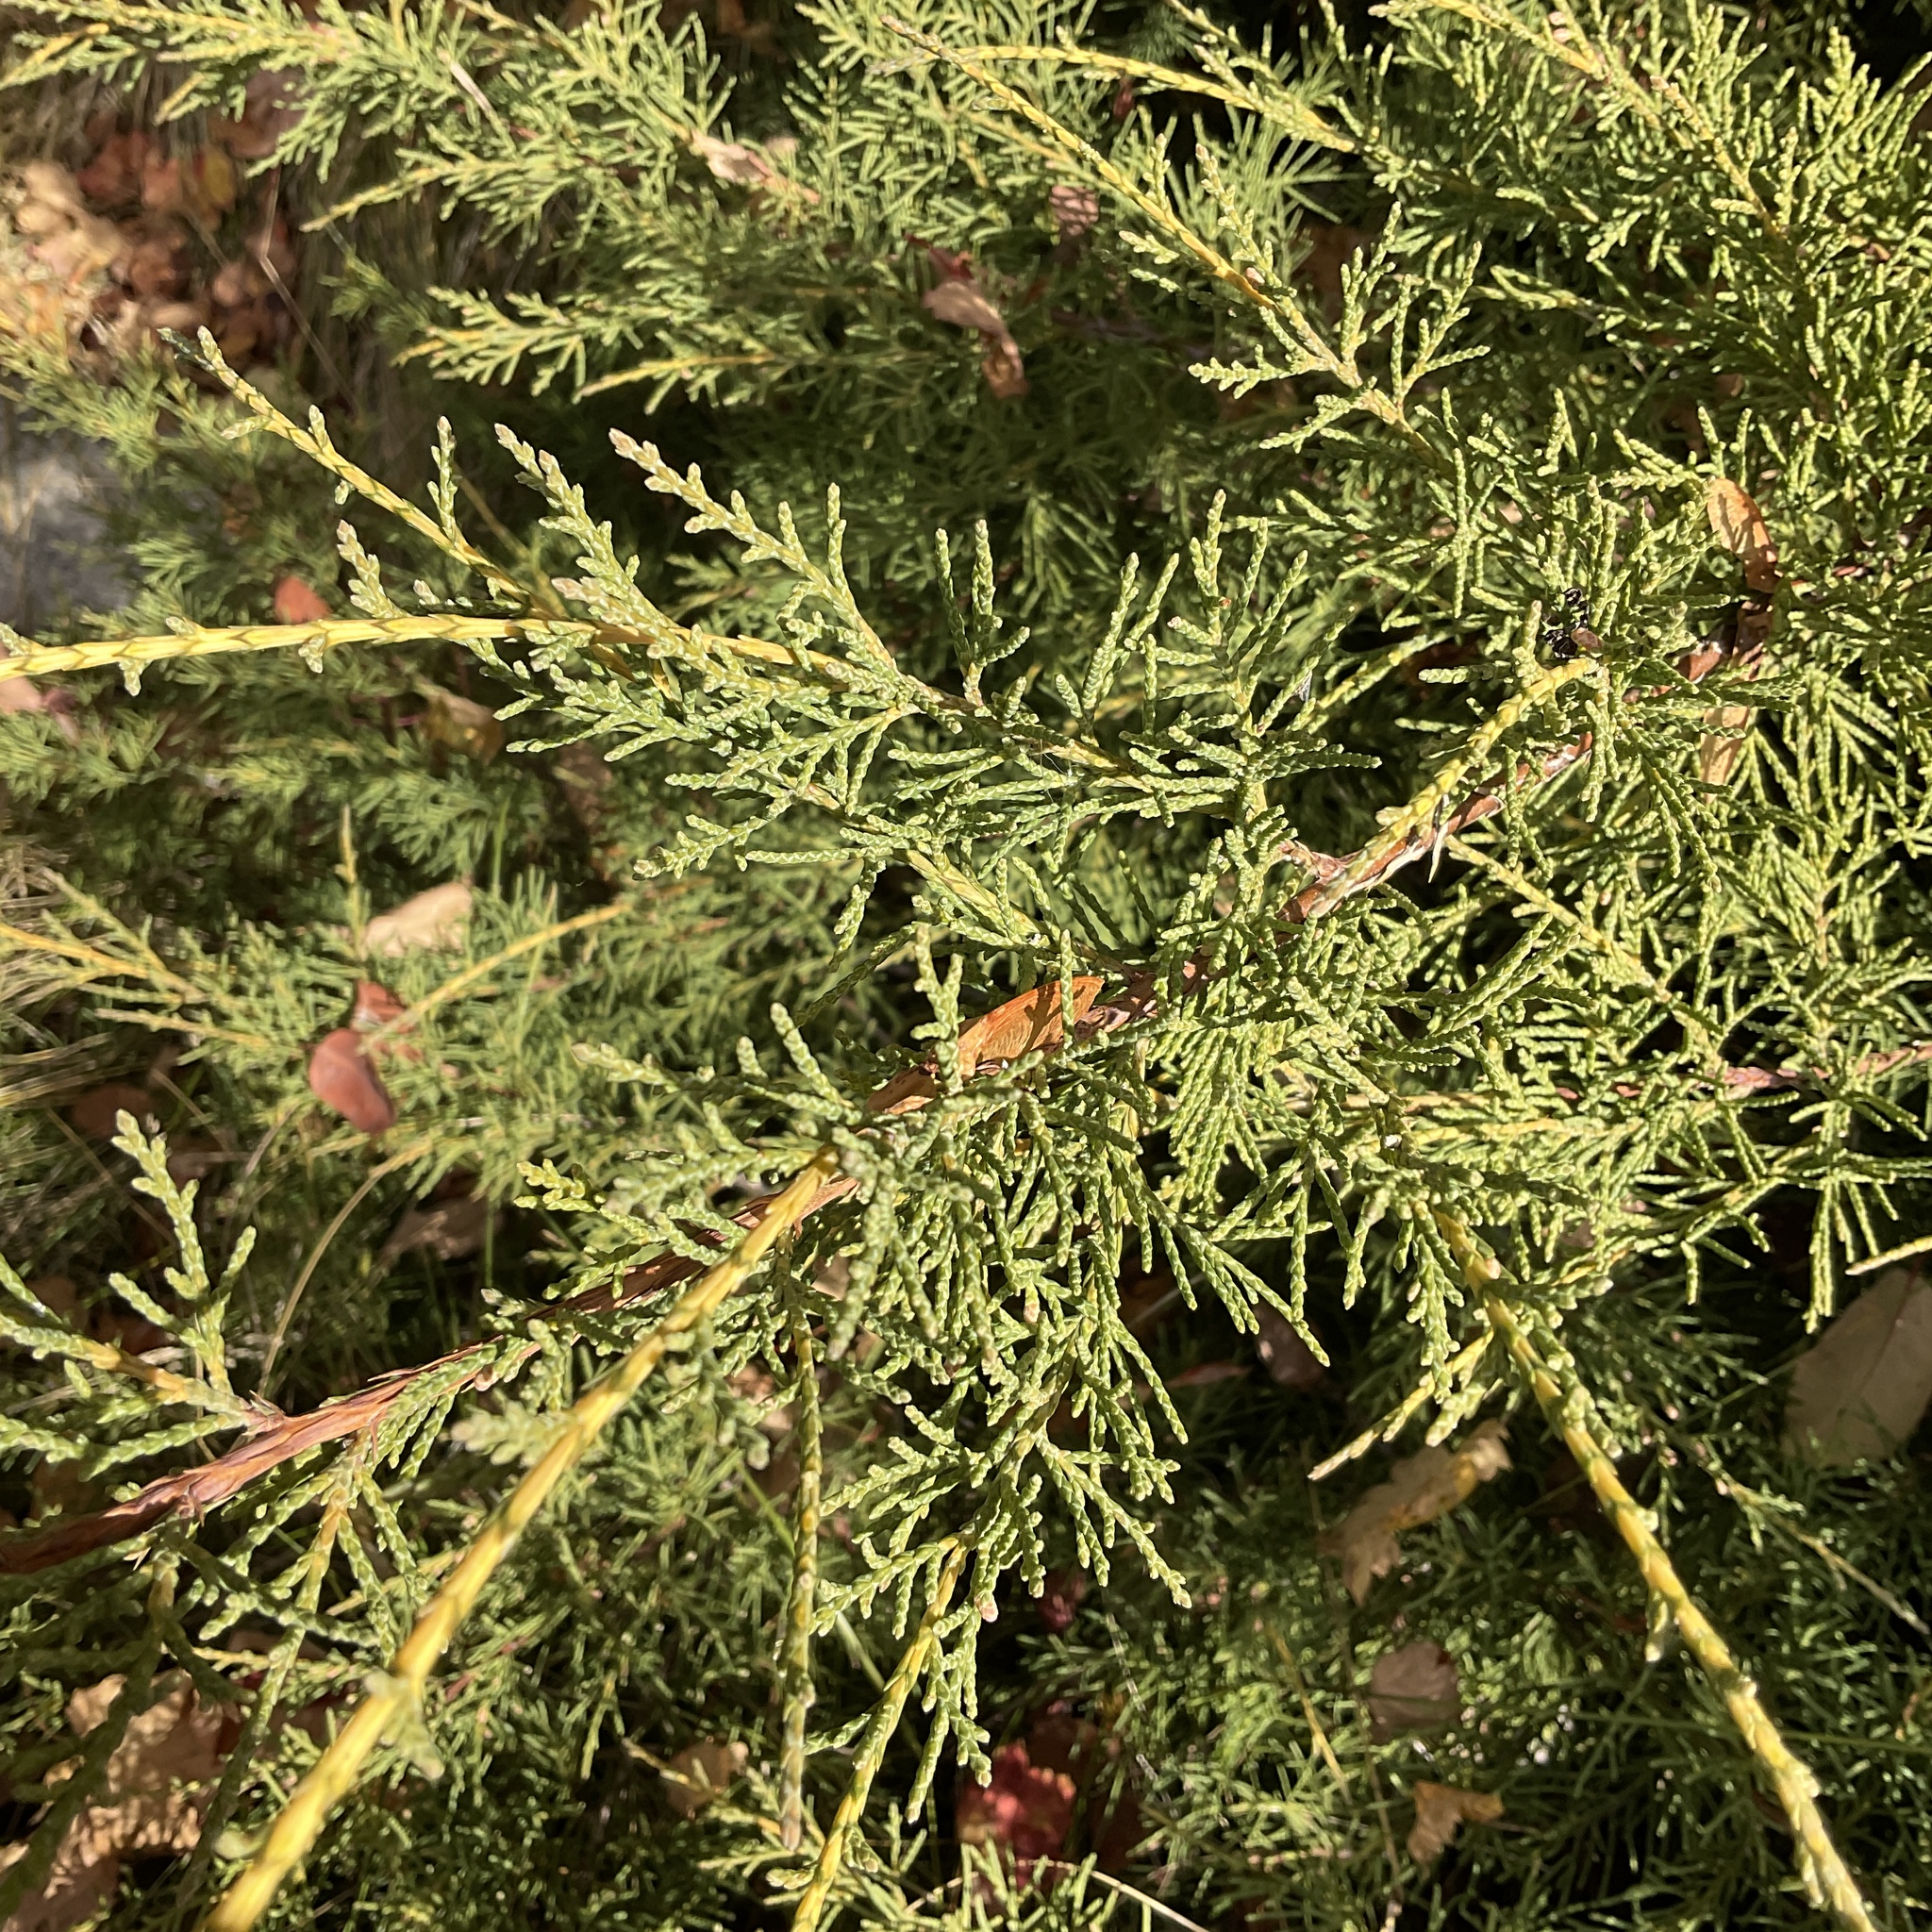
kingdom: Plantae
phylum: Tracheophyta
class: Pinopsida
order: Pinales
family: Cupressaceae
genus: Juniperus
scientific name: Juniperus horizontalis
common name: Creeping juniper
